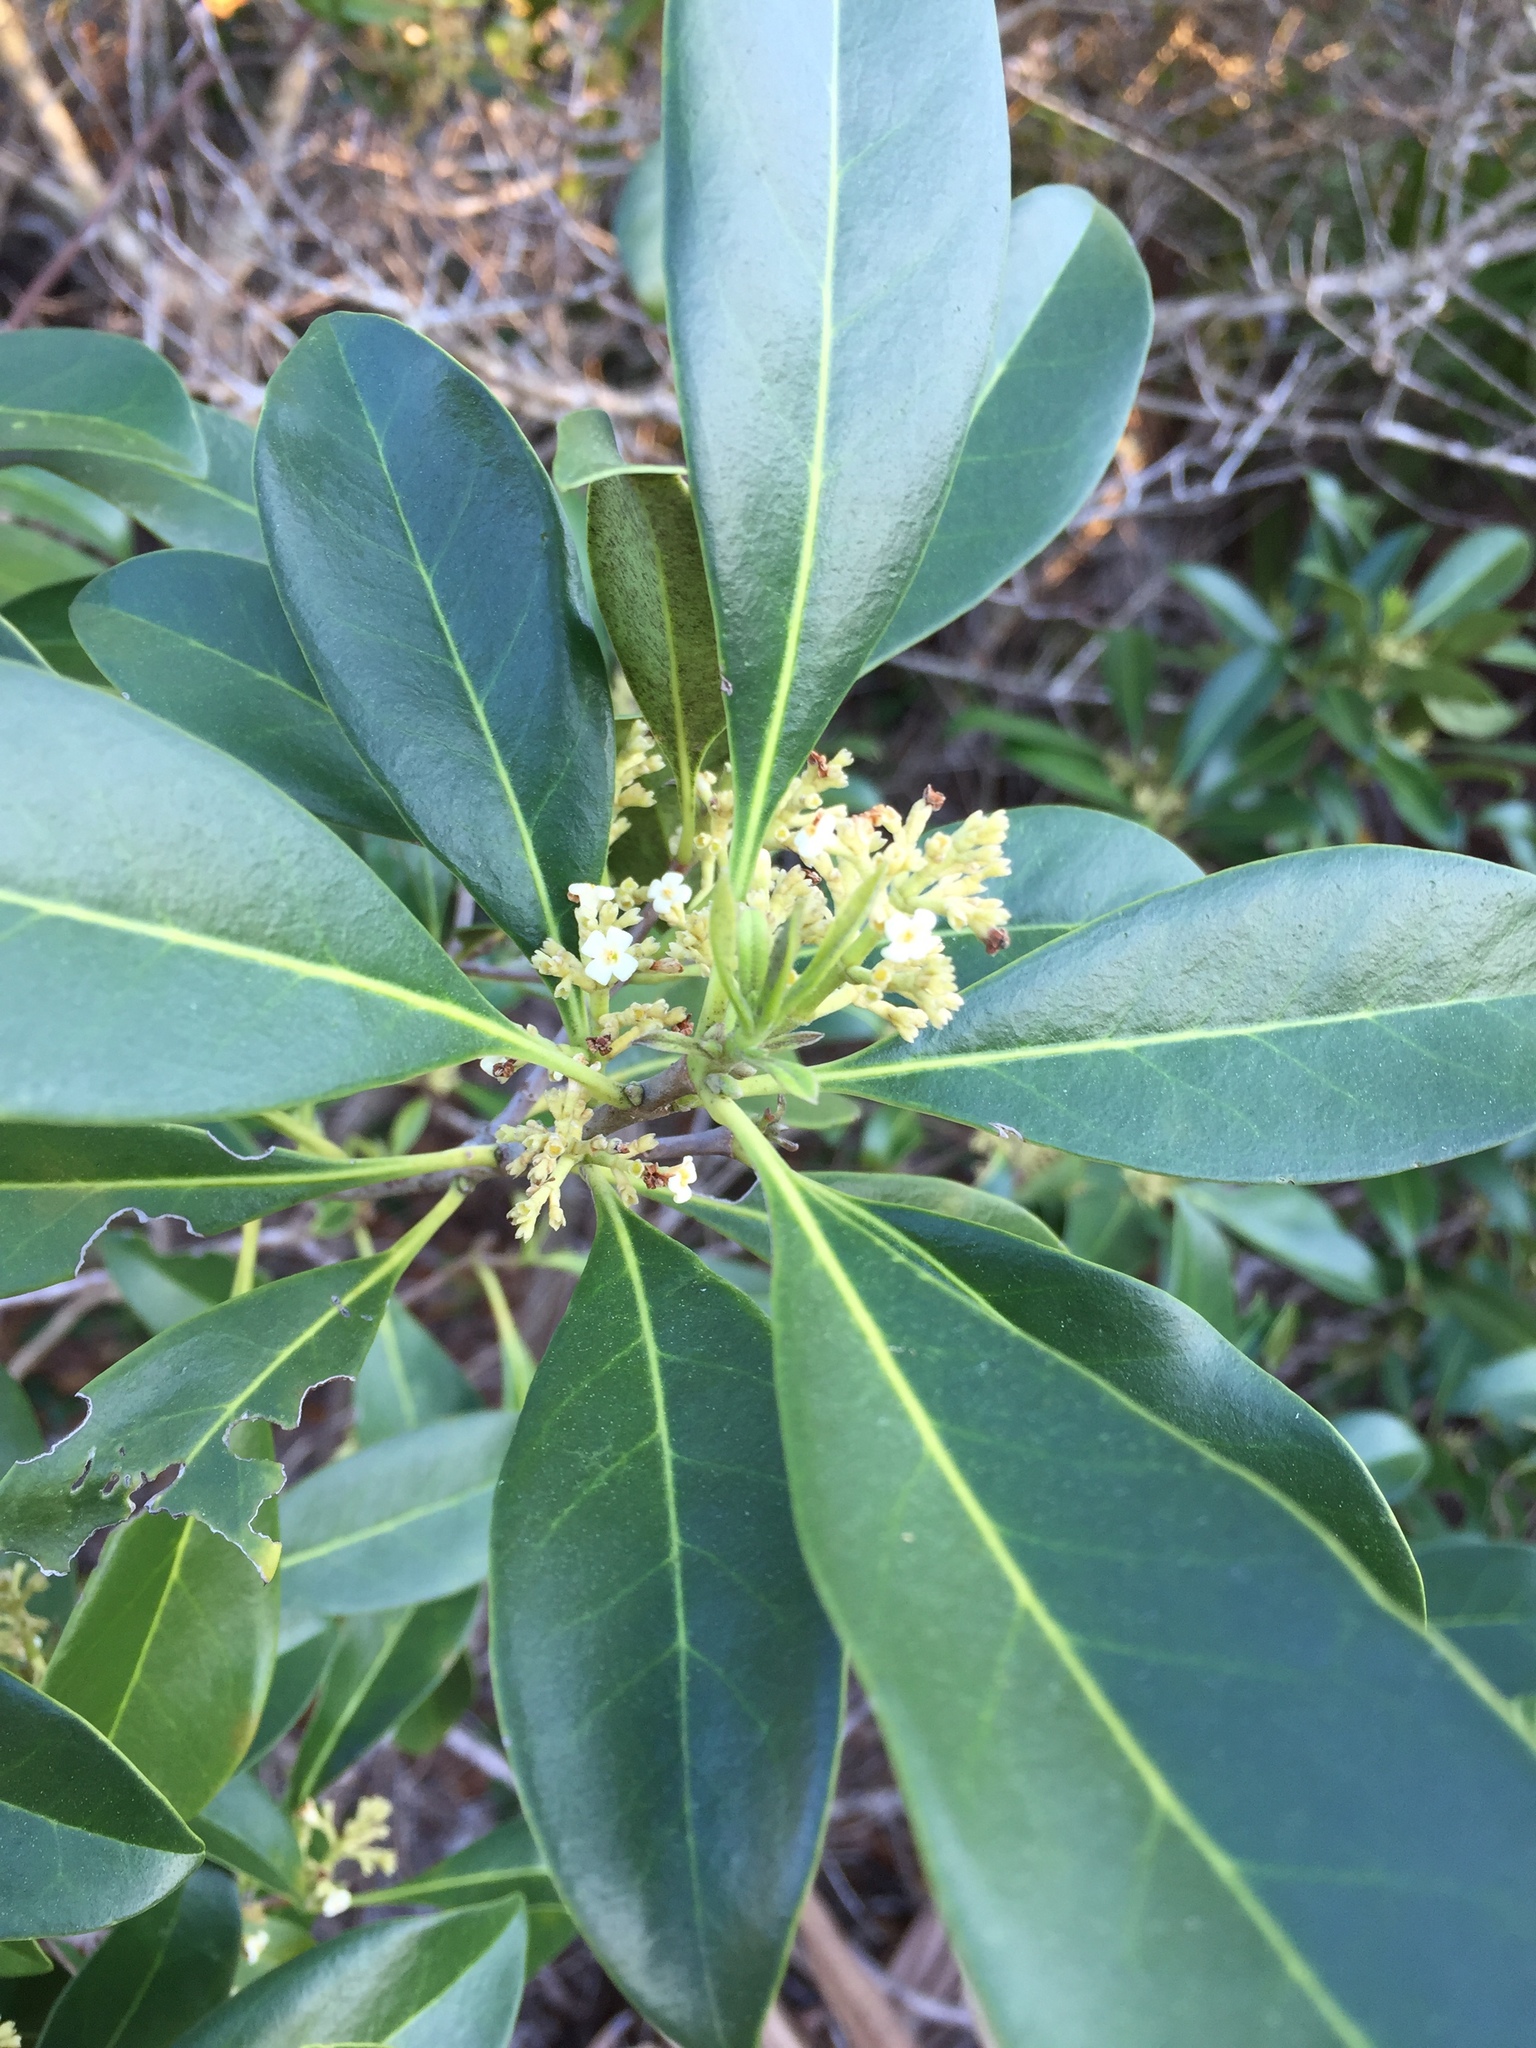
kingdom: Plantae
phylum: Tracheophyta
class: Magnoliopsida
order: Lamiales
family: Oleaceae
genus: Cartrema
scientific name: Cartrema americana
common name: Devilwood
